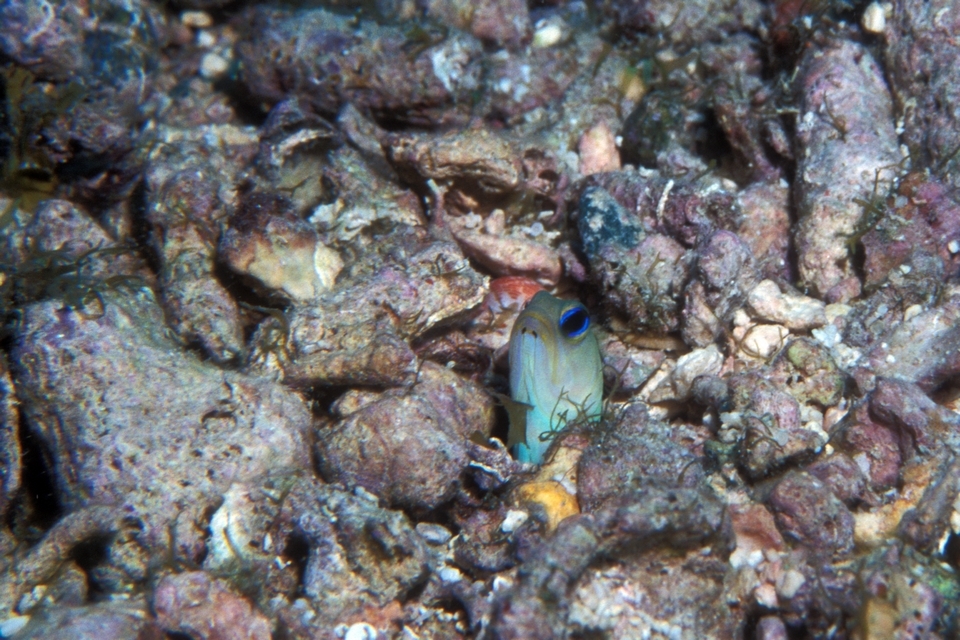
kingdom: Animalia
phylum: Chordata
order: Perciformes
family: Opistognathidae
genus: Opistognathus
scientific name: Opistognathus aurifrons
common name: Yellowhead jawfish
